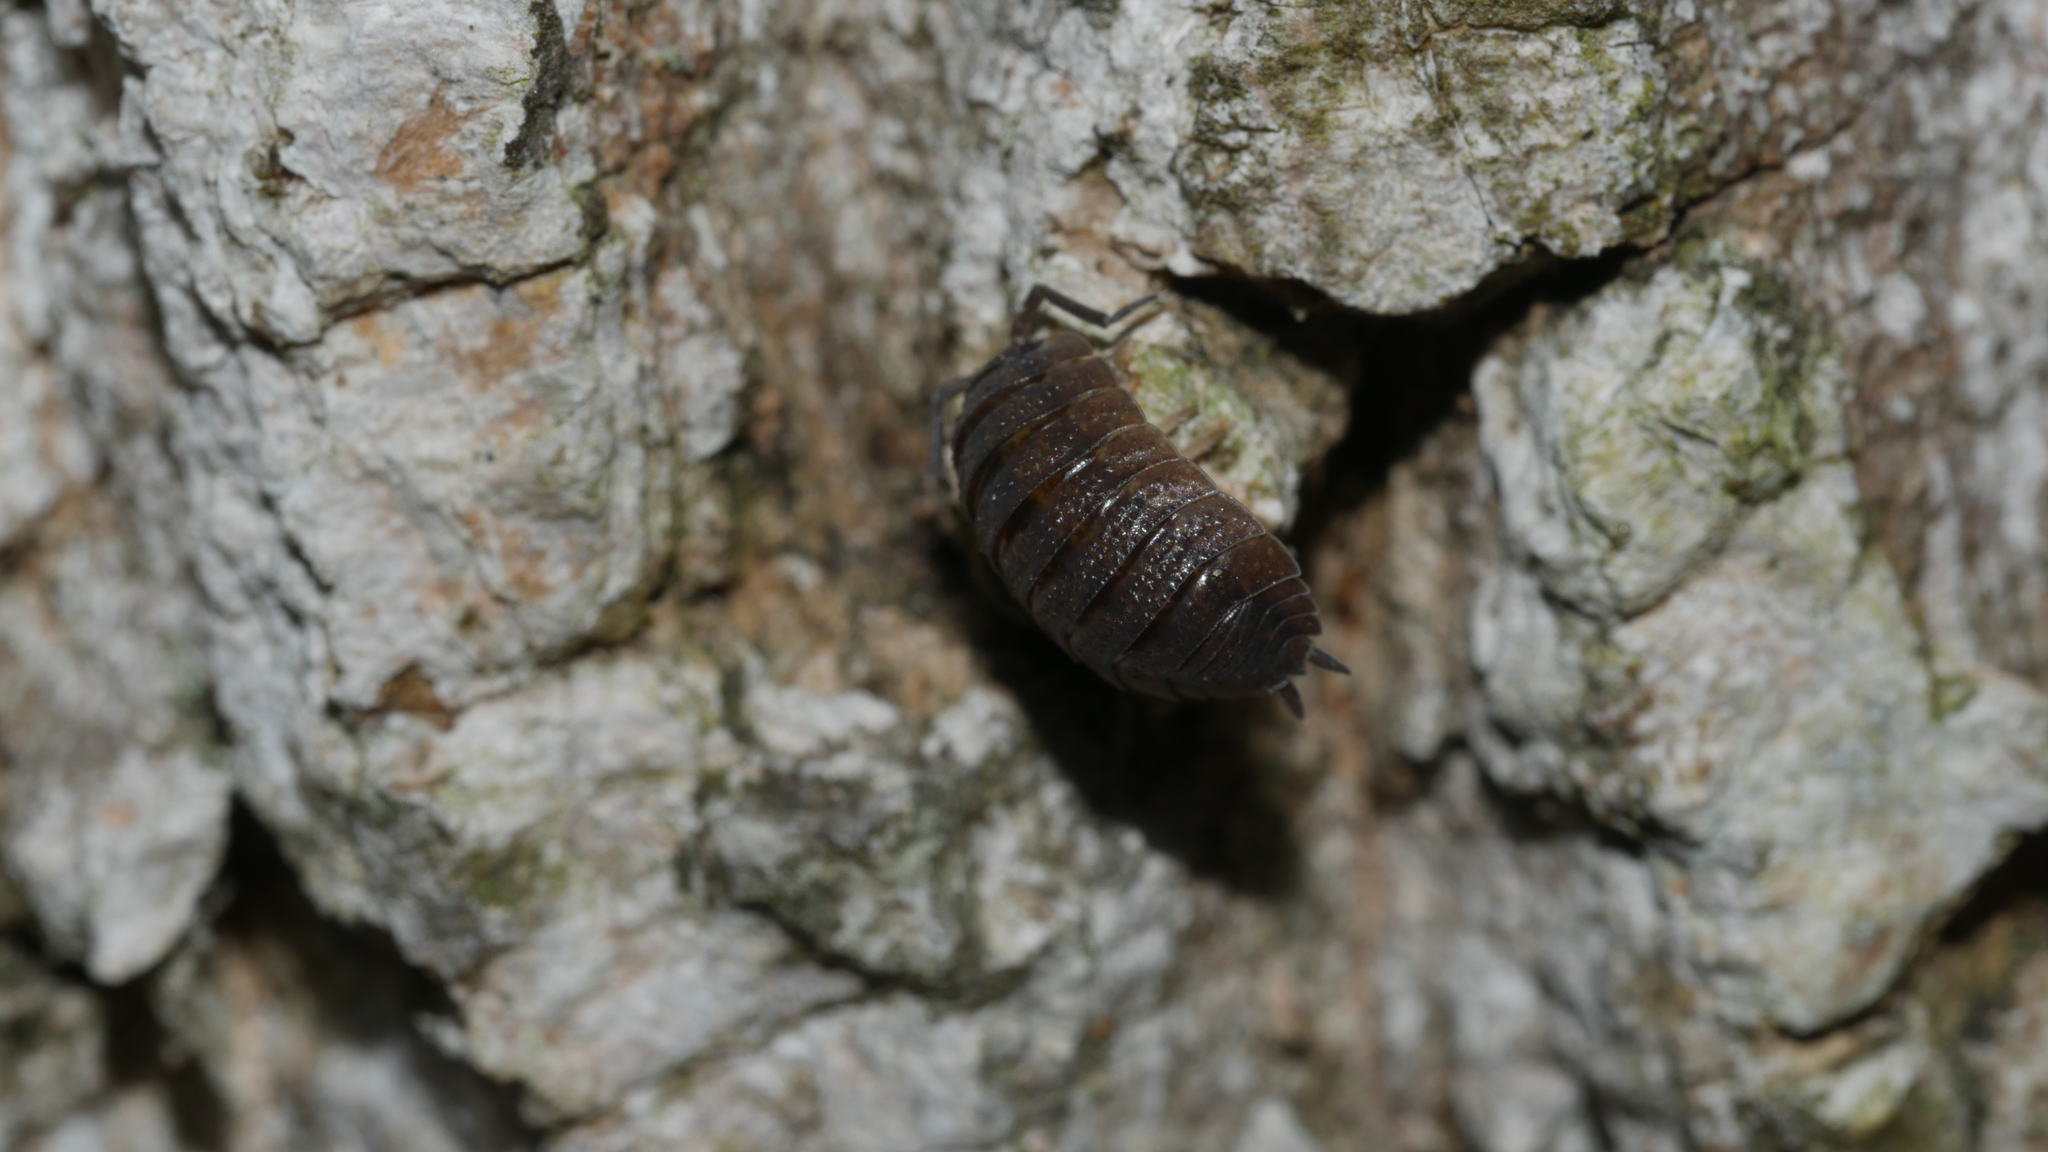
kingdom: Animalia
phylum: Arthropoda
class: Malacostraca
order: Isopoda
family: Porcellionidae
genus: Porcellio
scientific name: Porcellio scaber
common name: Common rough woodlouse
